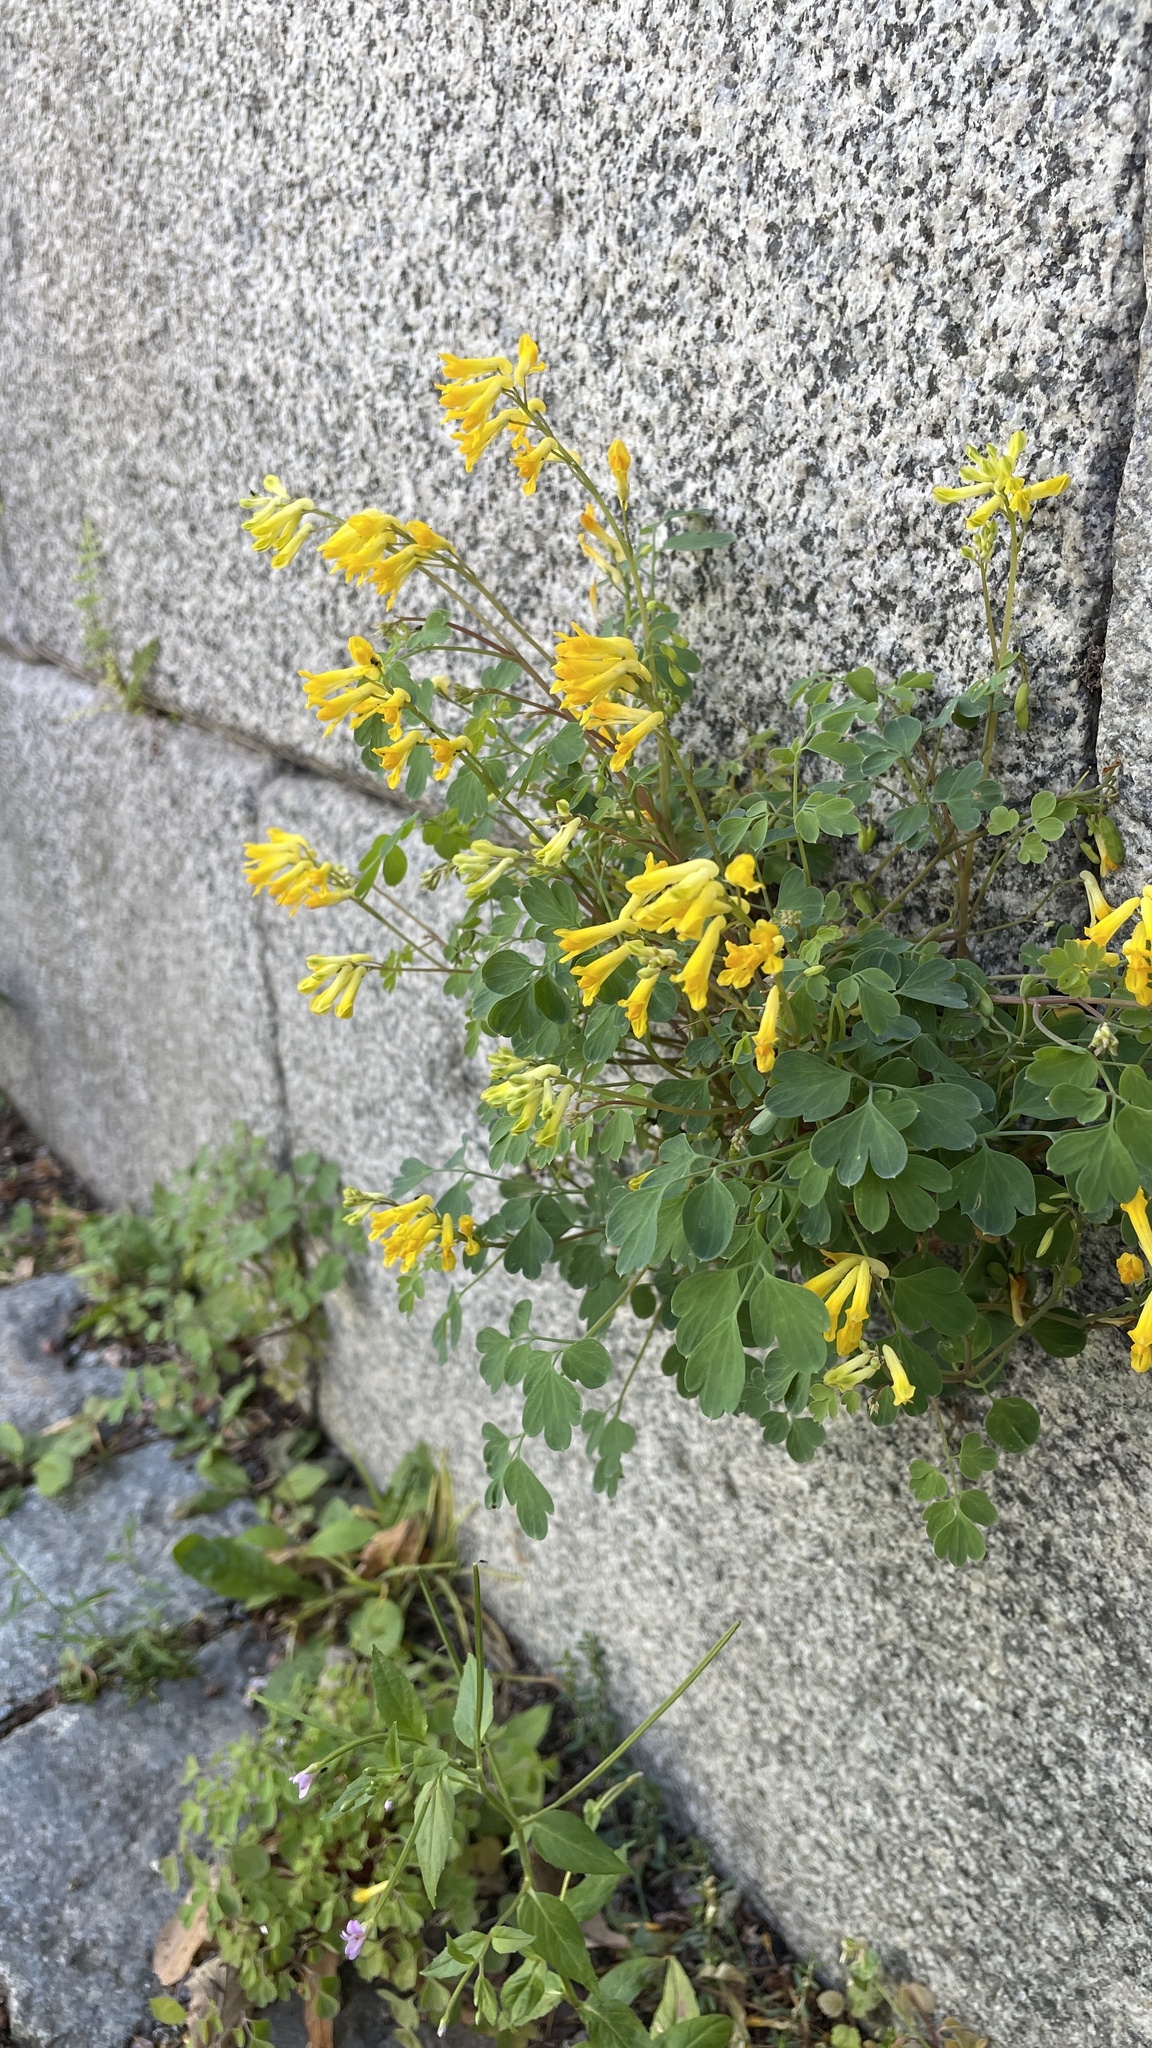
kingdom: Plantae
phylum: Tracheophyta
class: Magnoliopsida
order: Ranunculales
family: Papaveraceae
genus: Pseudofumaria
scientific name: Pseudofumaria lutea
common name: Yellow corydalis
